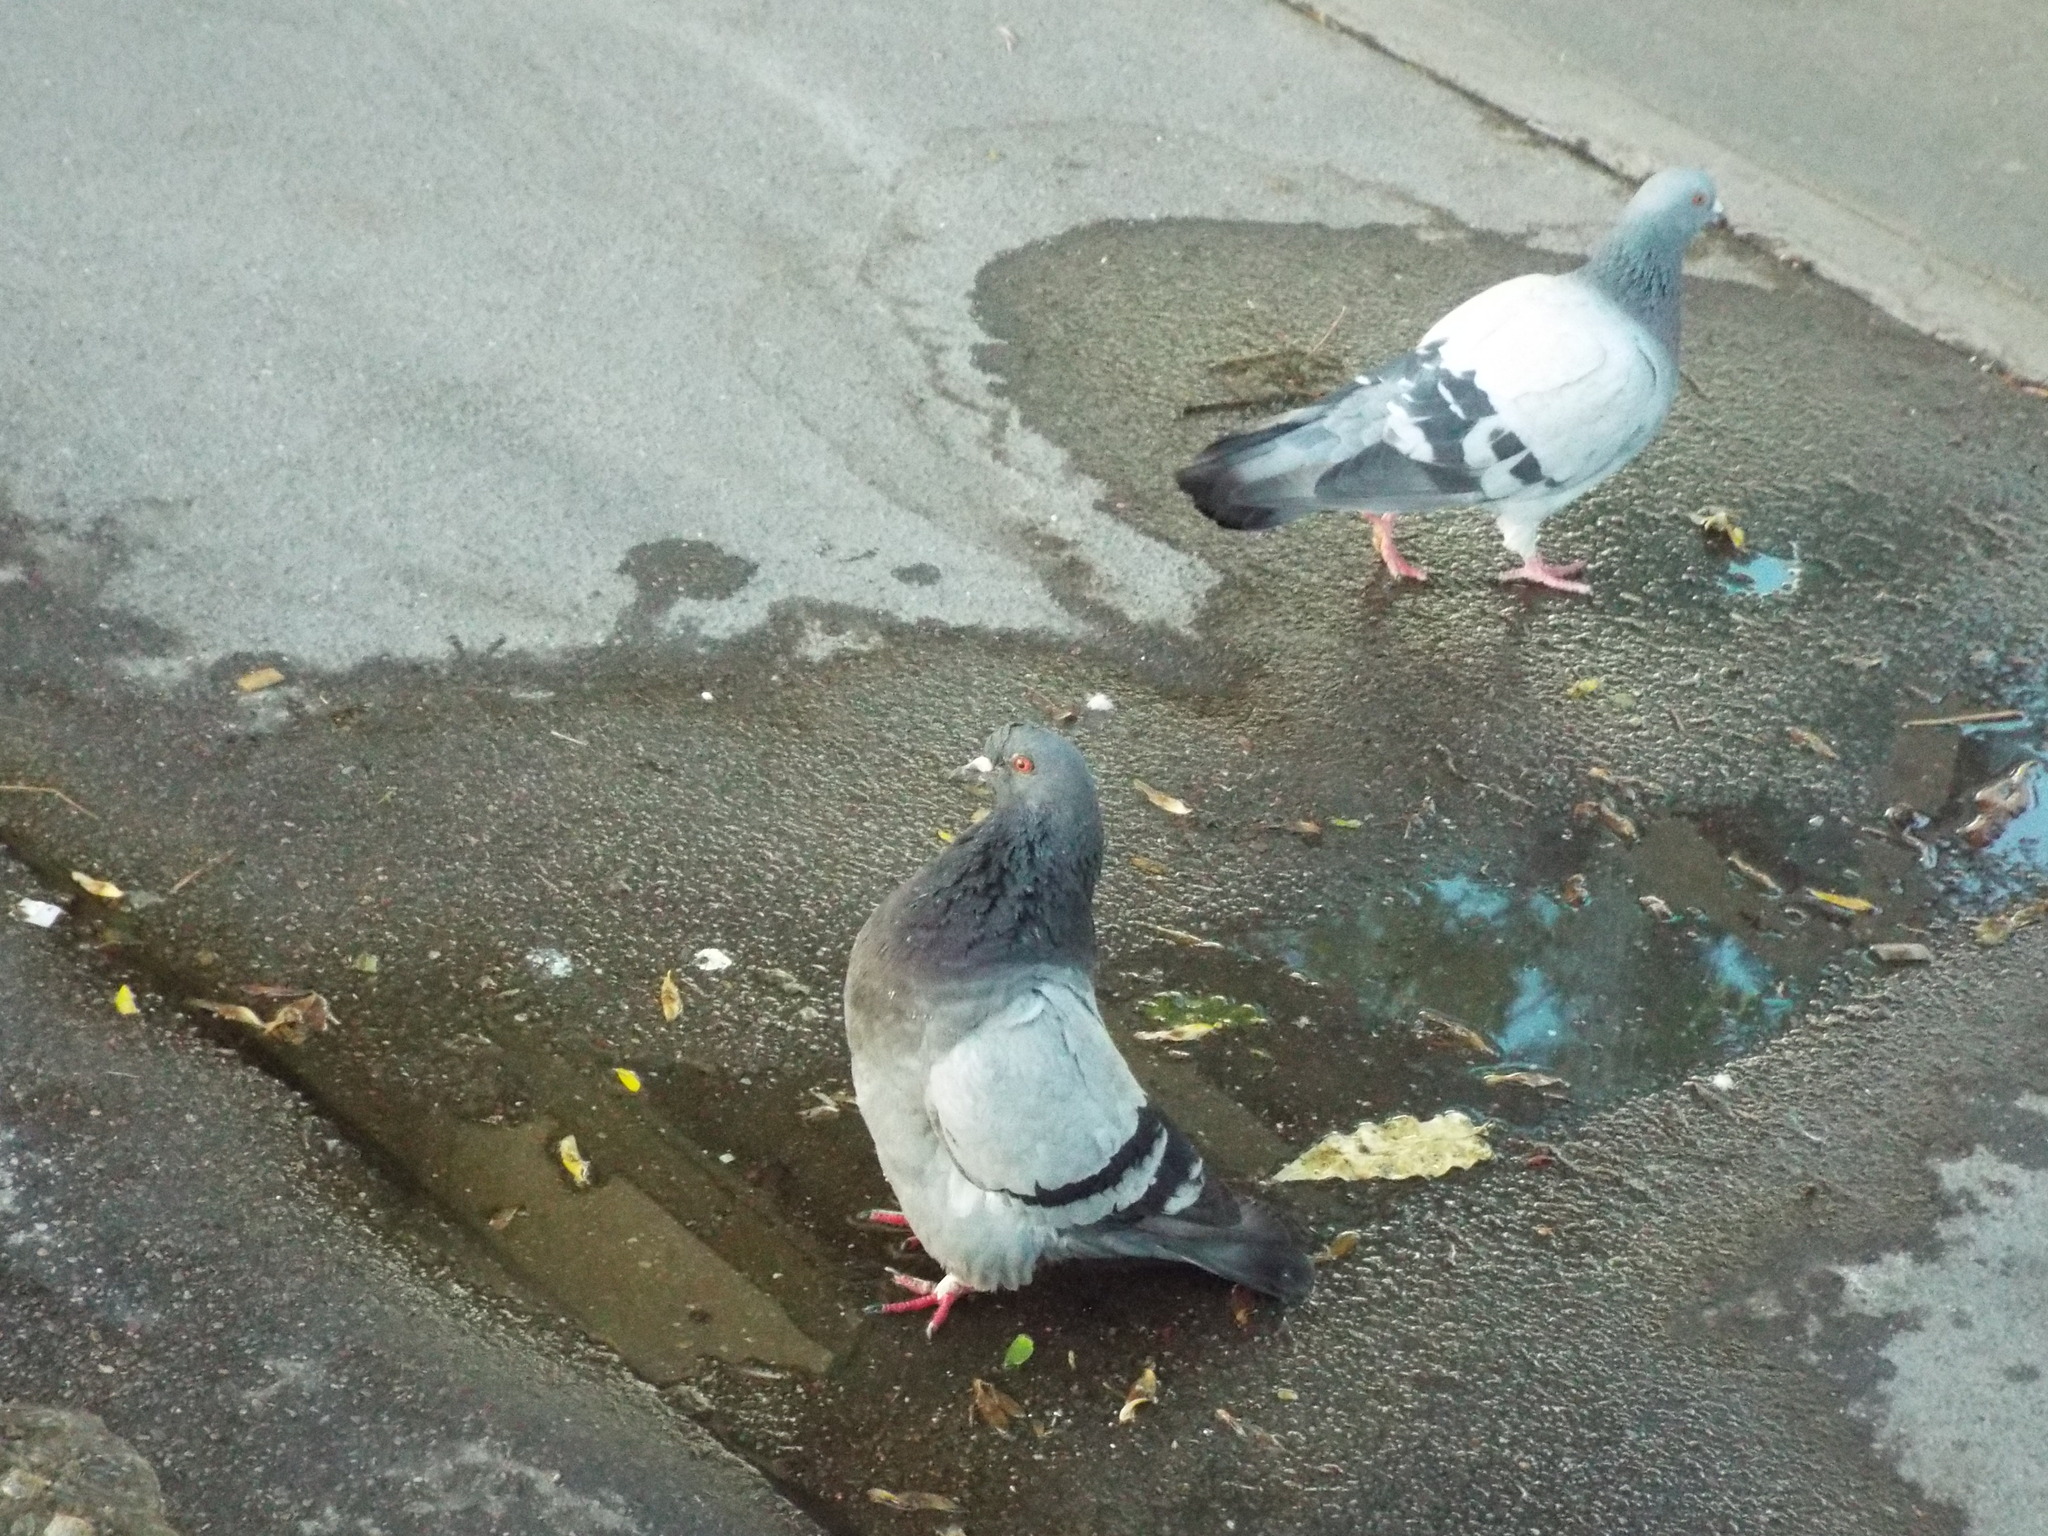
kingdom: Animalia
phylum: Chordata
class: Aves
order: Columbiformes
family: Columbidae
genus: Columba
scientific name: Columba livia
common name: Rock pigeon
